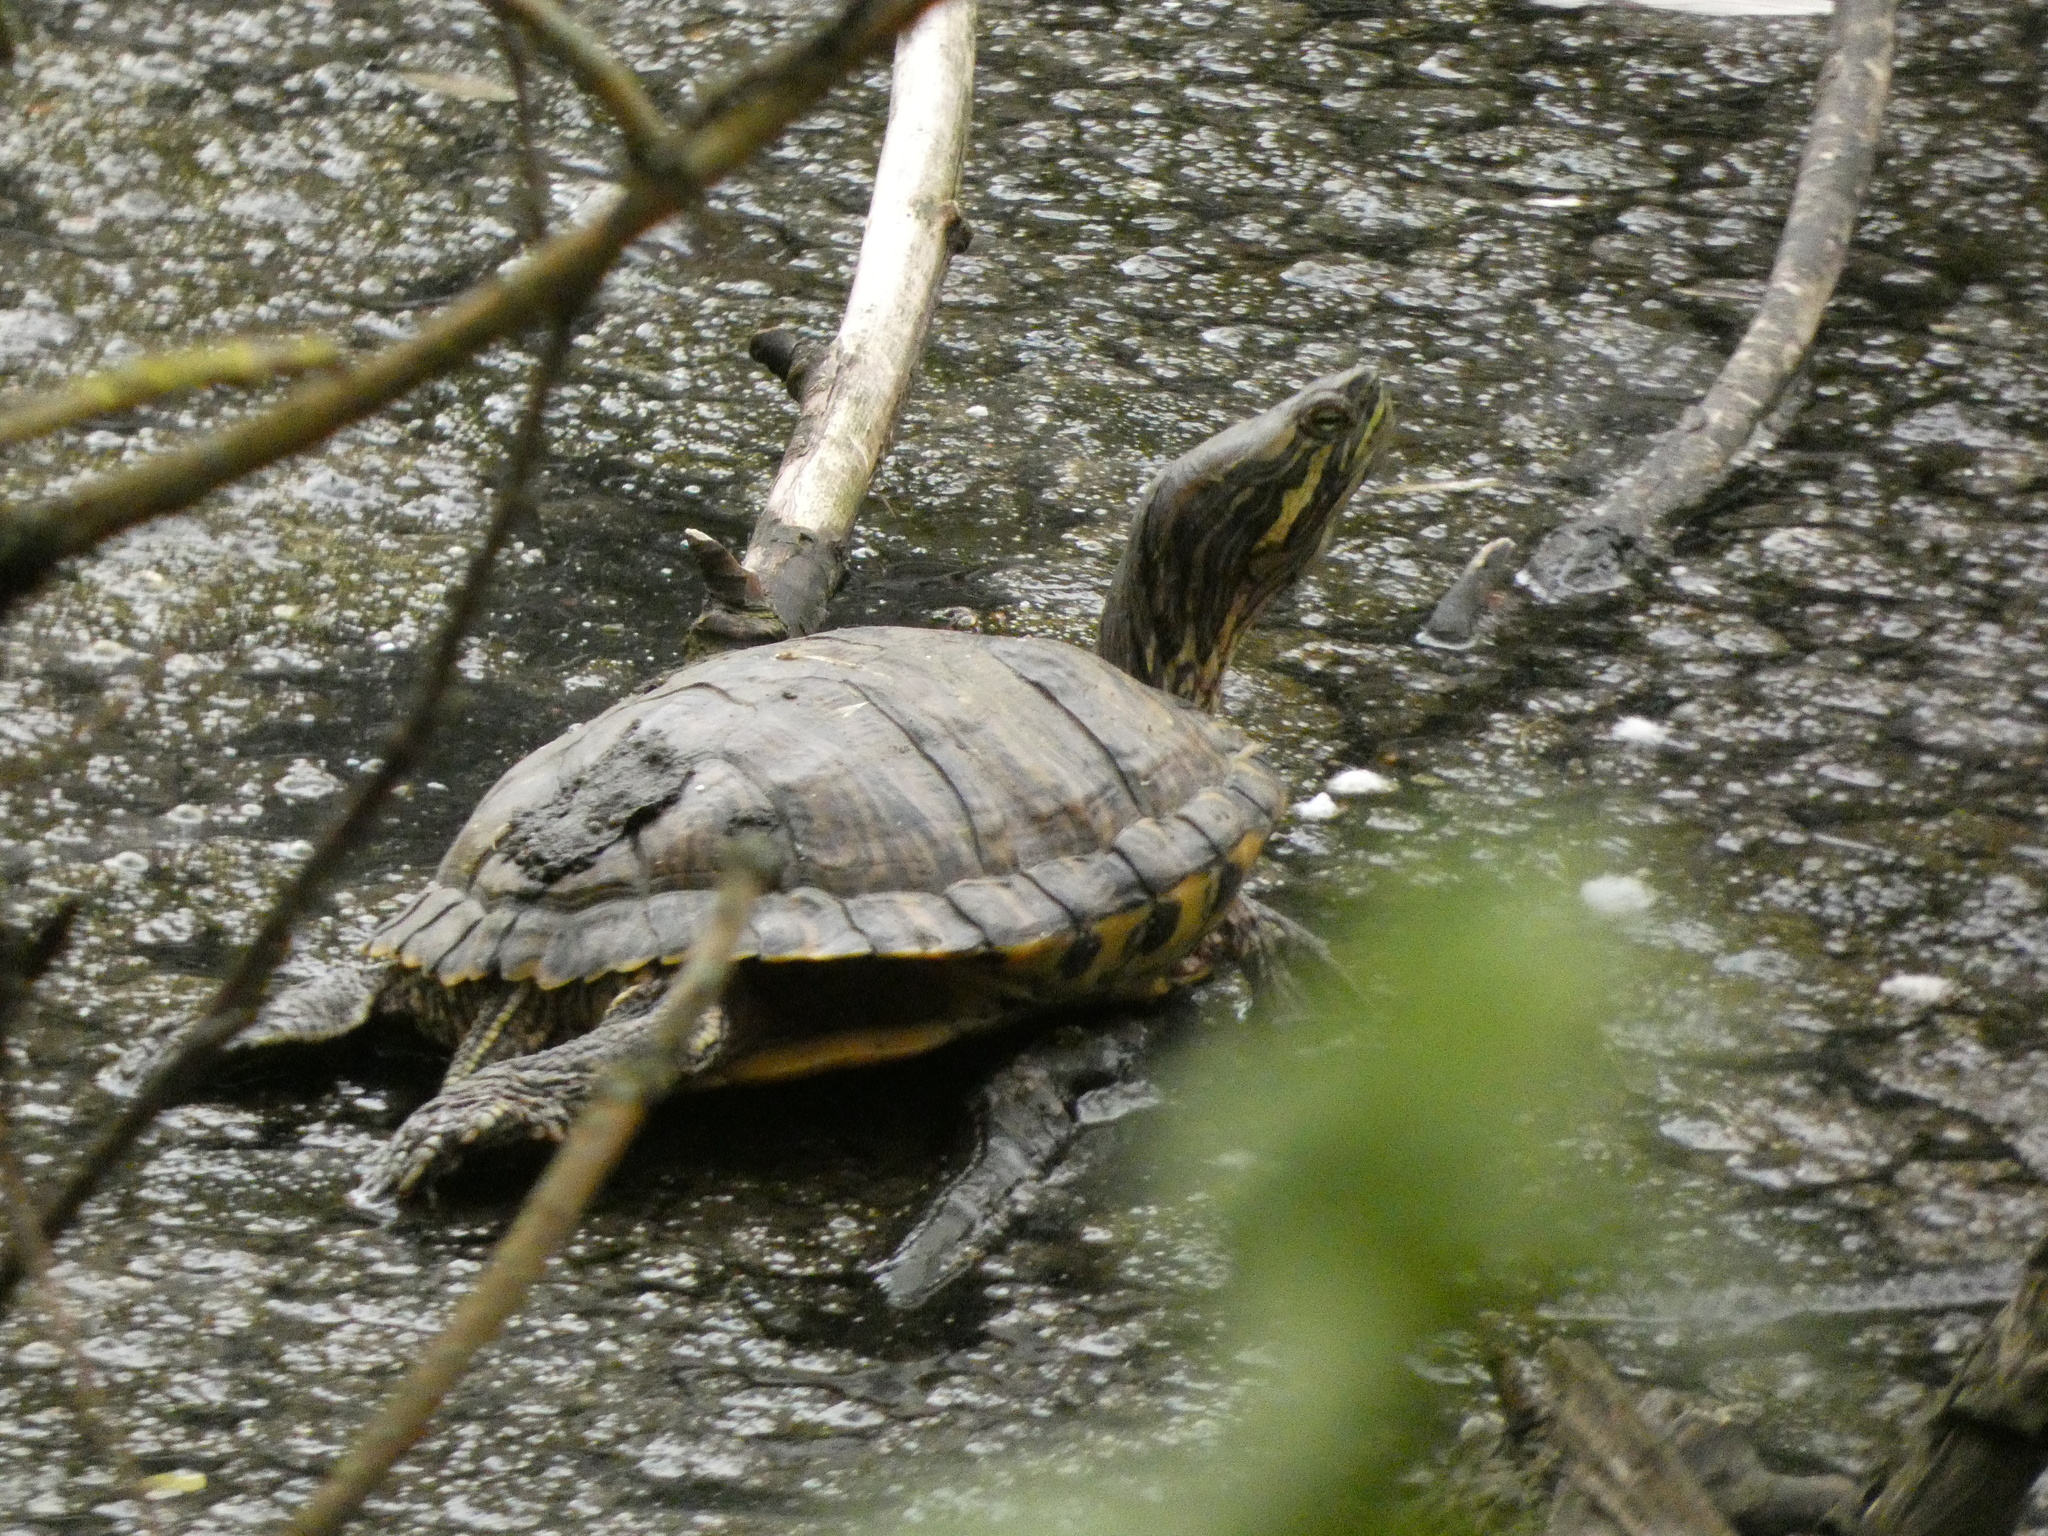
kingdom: Animalia
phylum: Chordata
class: Testudines
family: Emydidae
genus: Trachemys
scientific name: Trachemys scripta
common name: Slider
